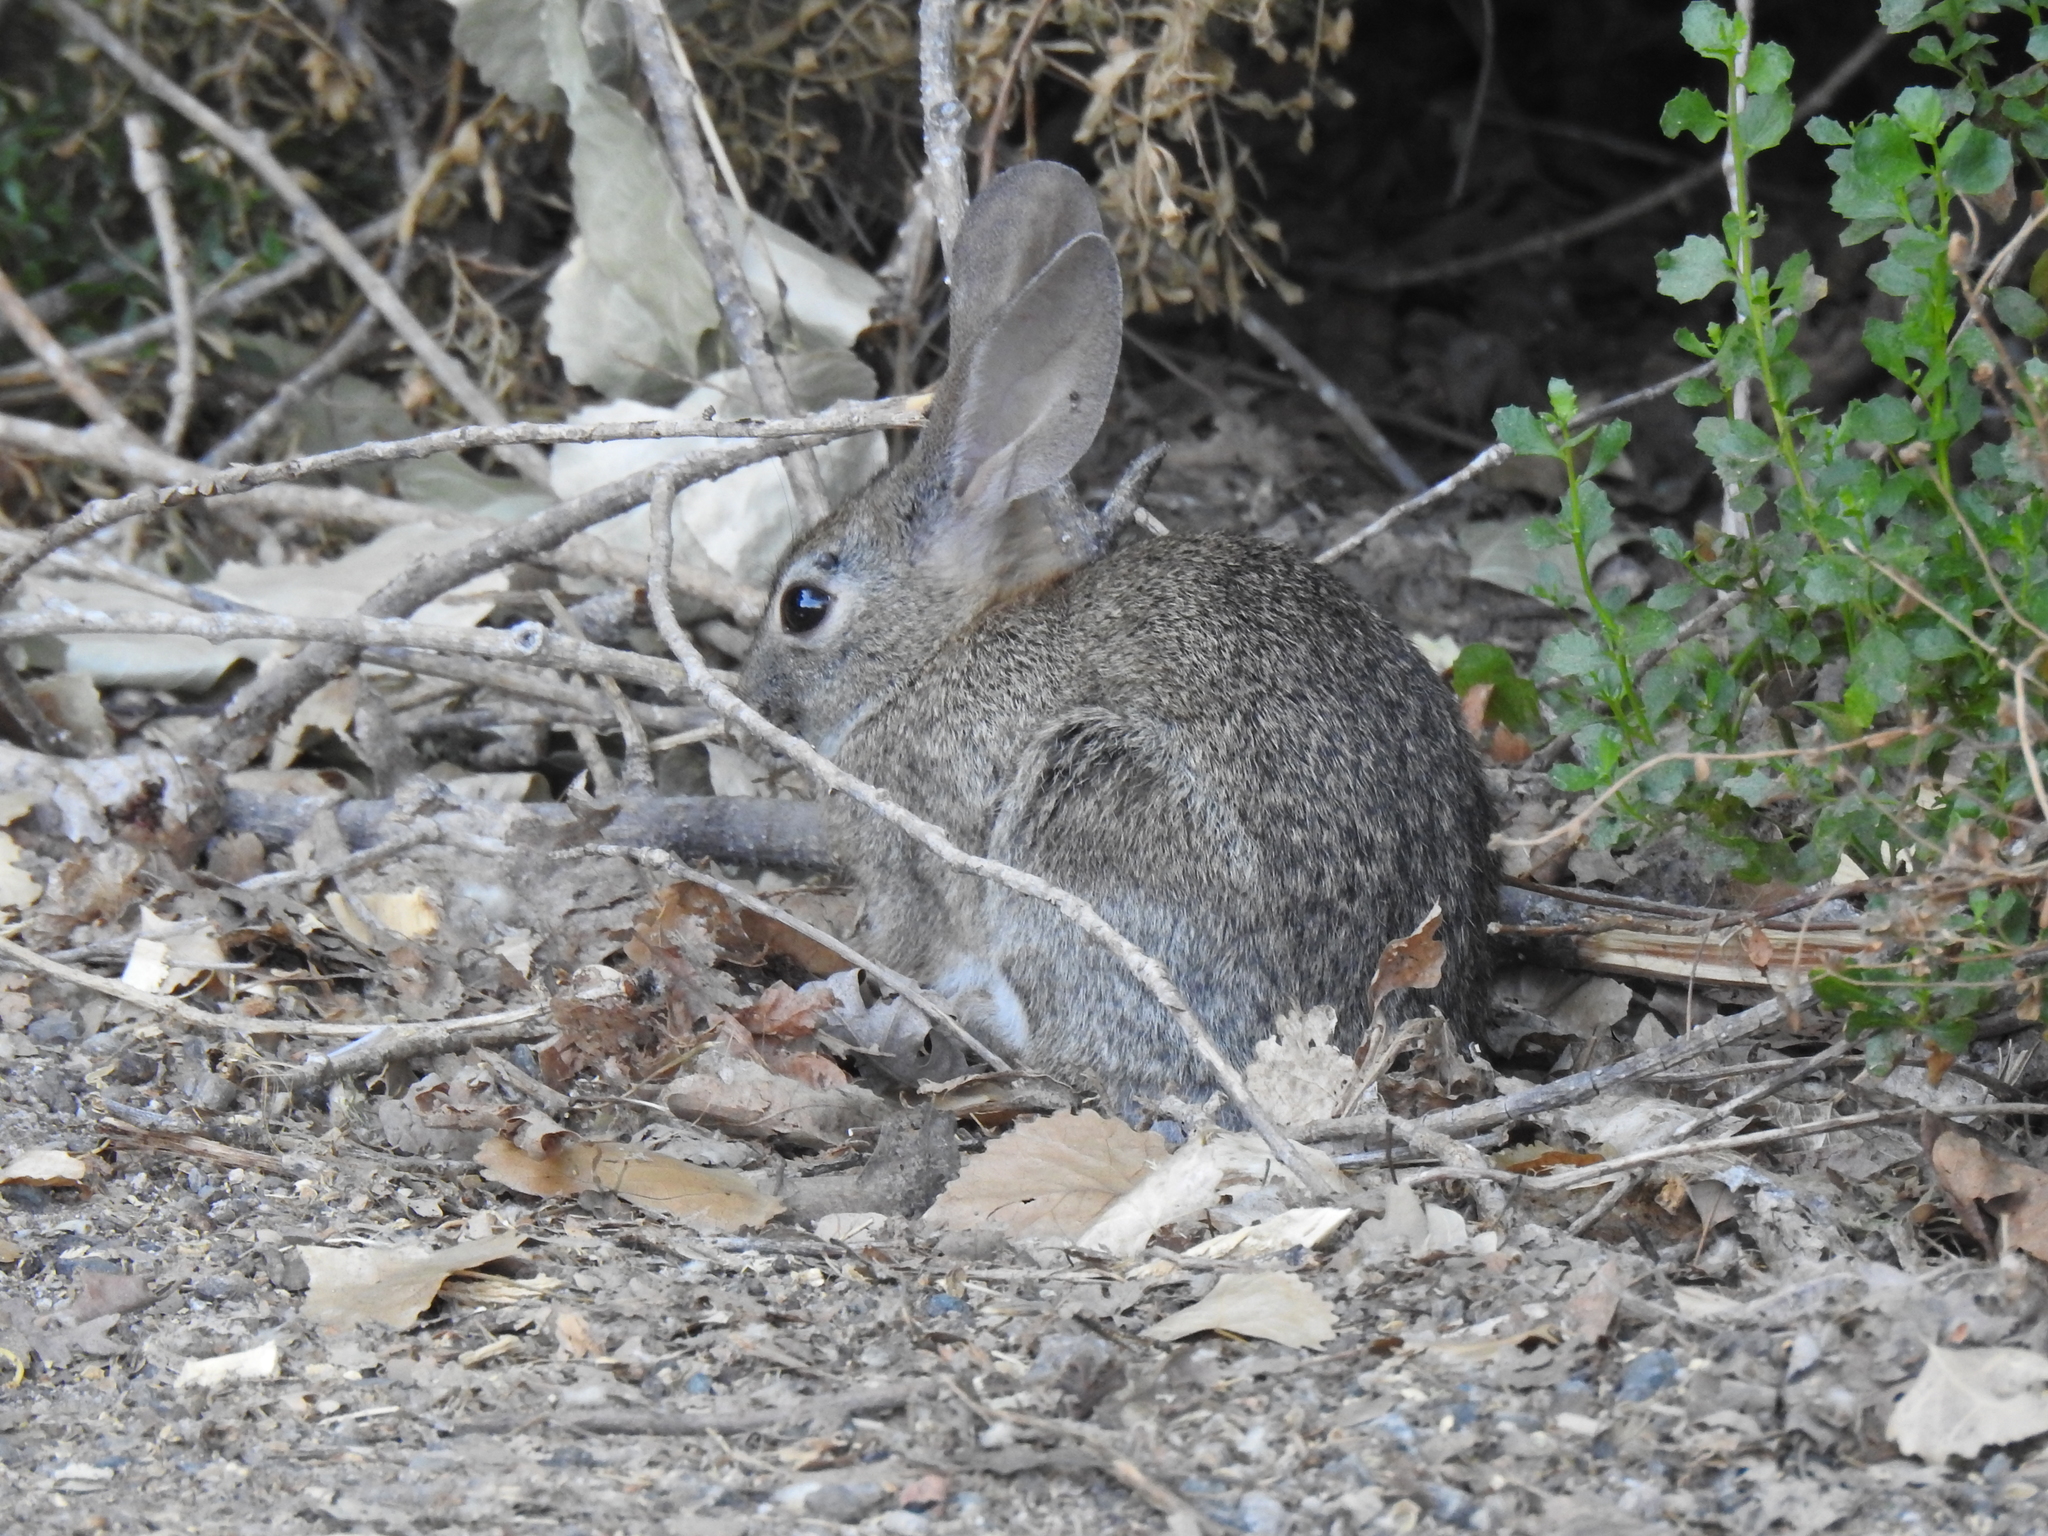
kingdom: Animalia
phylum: Chordata
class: Mammalia
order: Lagomorpha
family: Leporidae
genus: Sylvilagus
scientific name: Sylvilagus bachmani
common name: Brush rabbit
